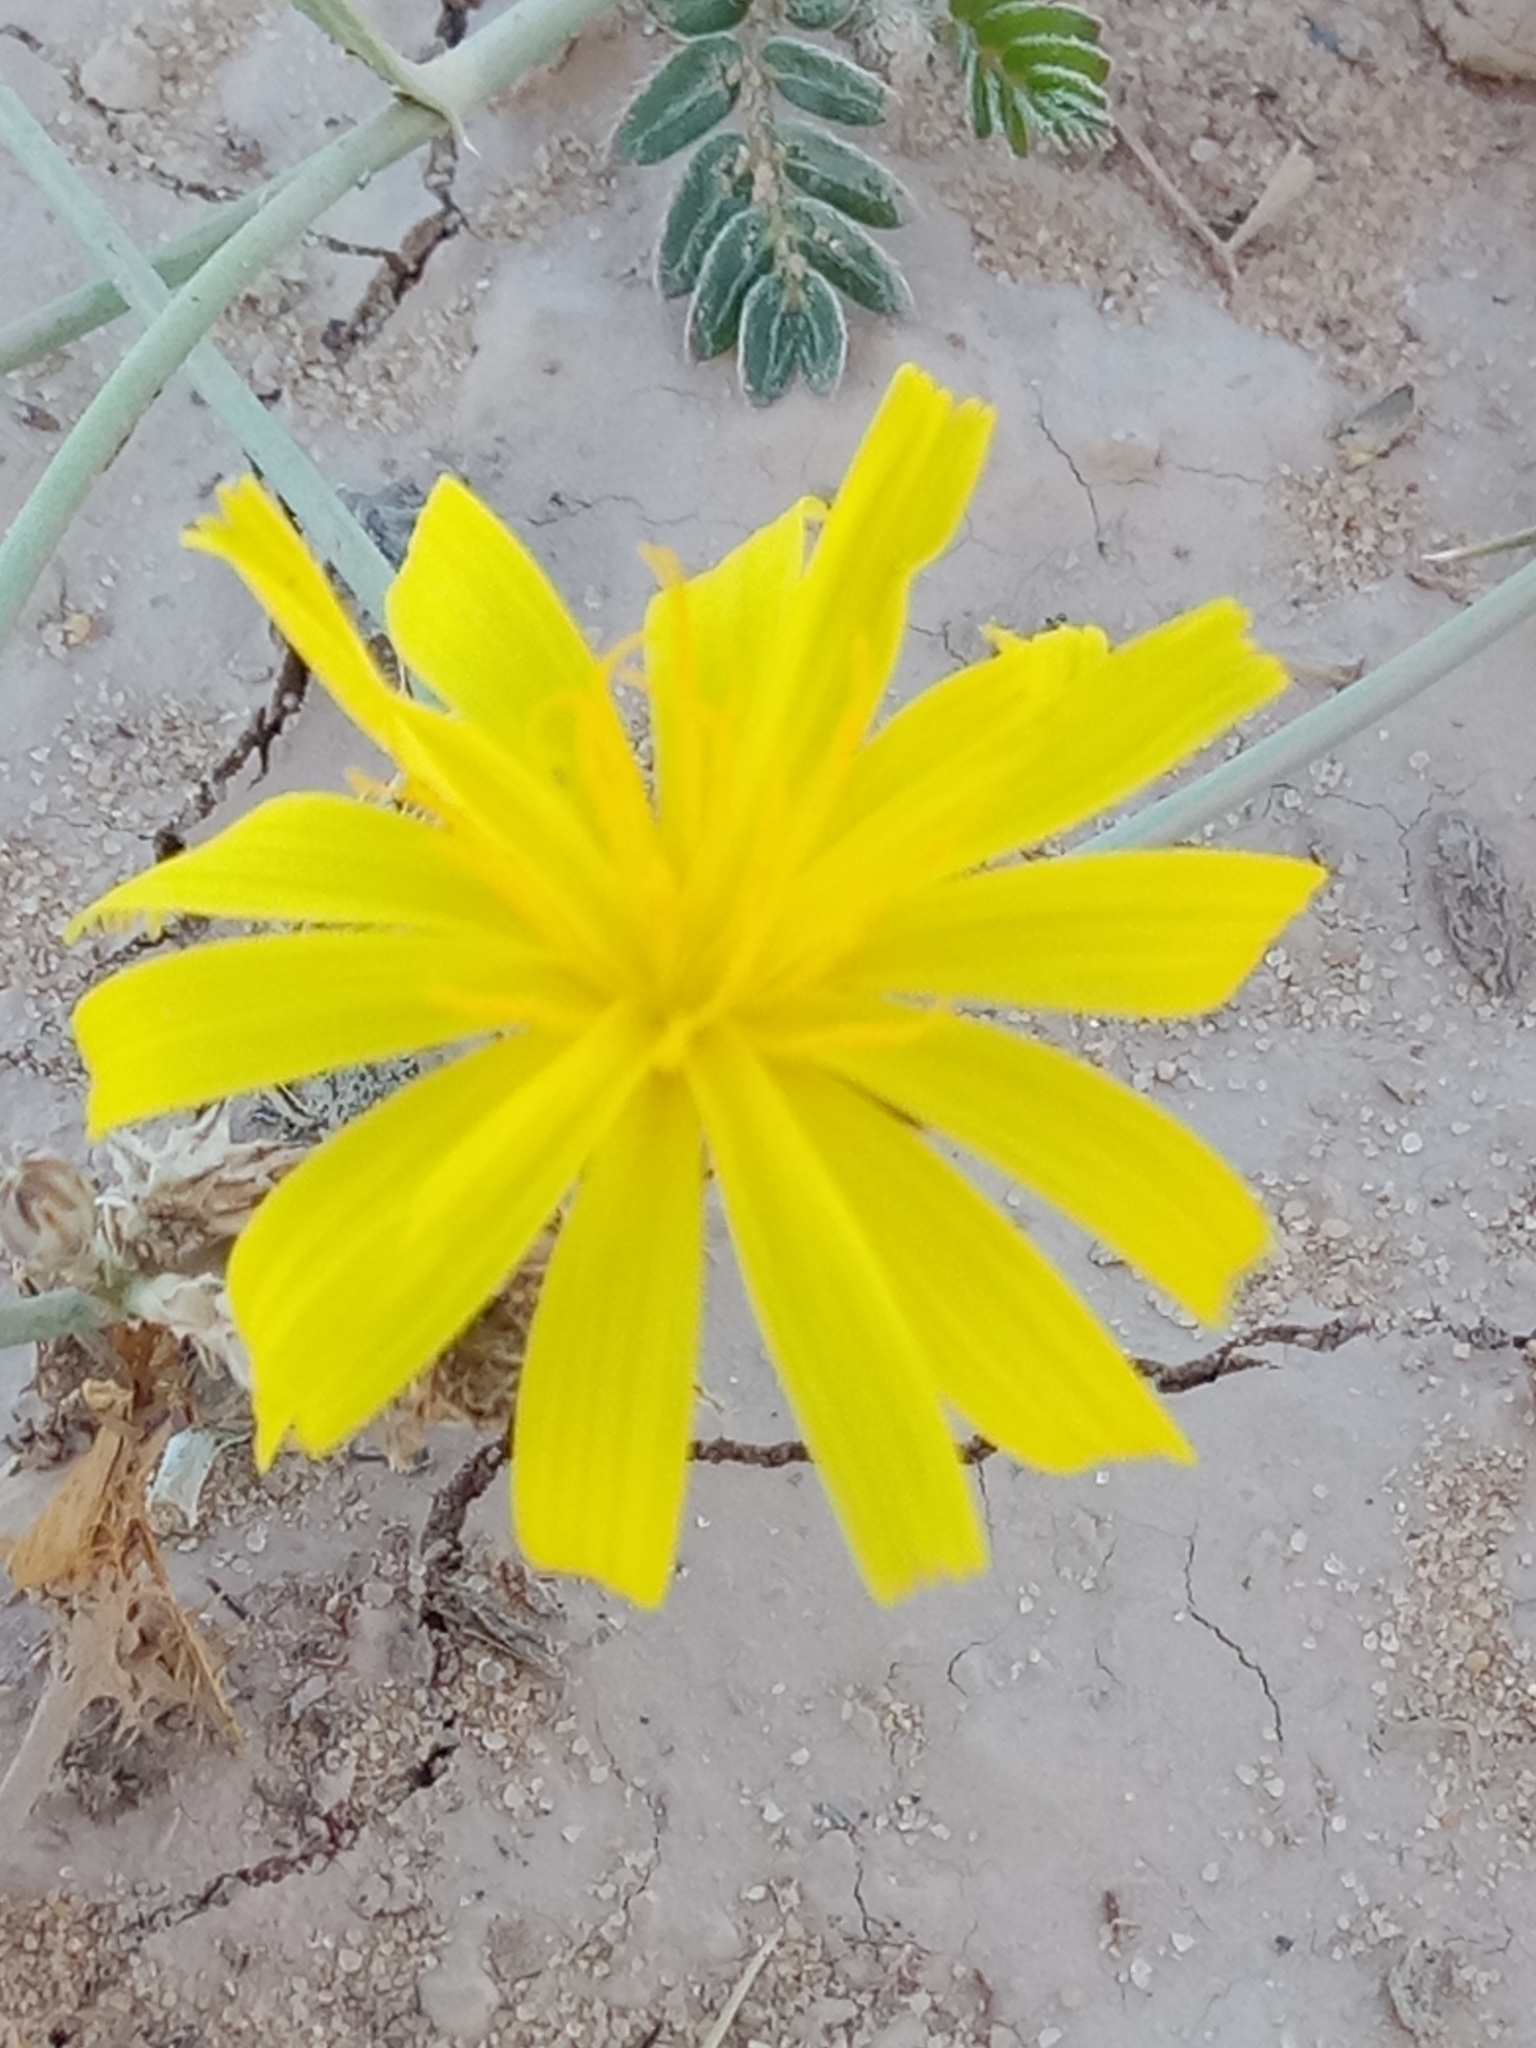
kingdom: Plantae
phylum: Tracheophyta
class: Magnoliopsida
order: Asterales
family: Asteraceae
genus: Launaea
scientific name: Launaea nudicaulis
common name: Naked launaea
